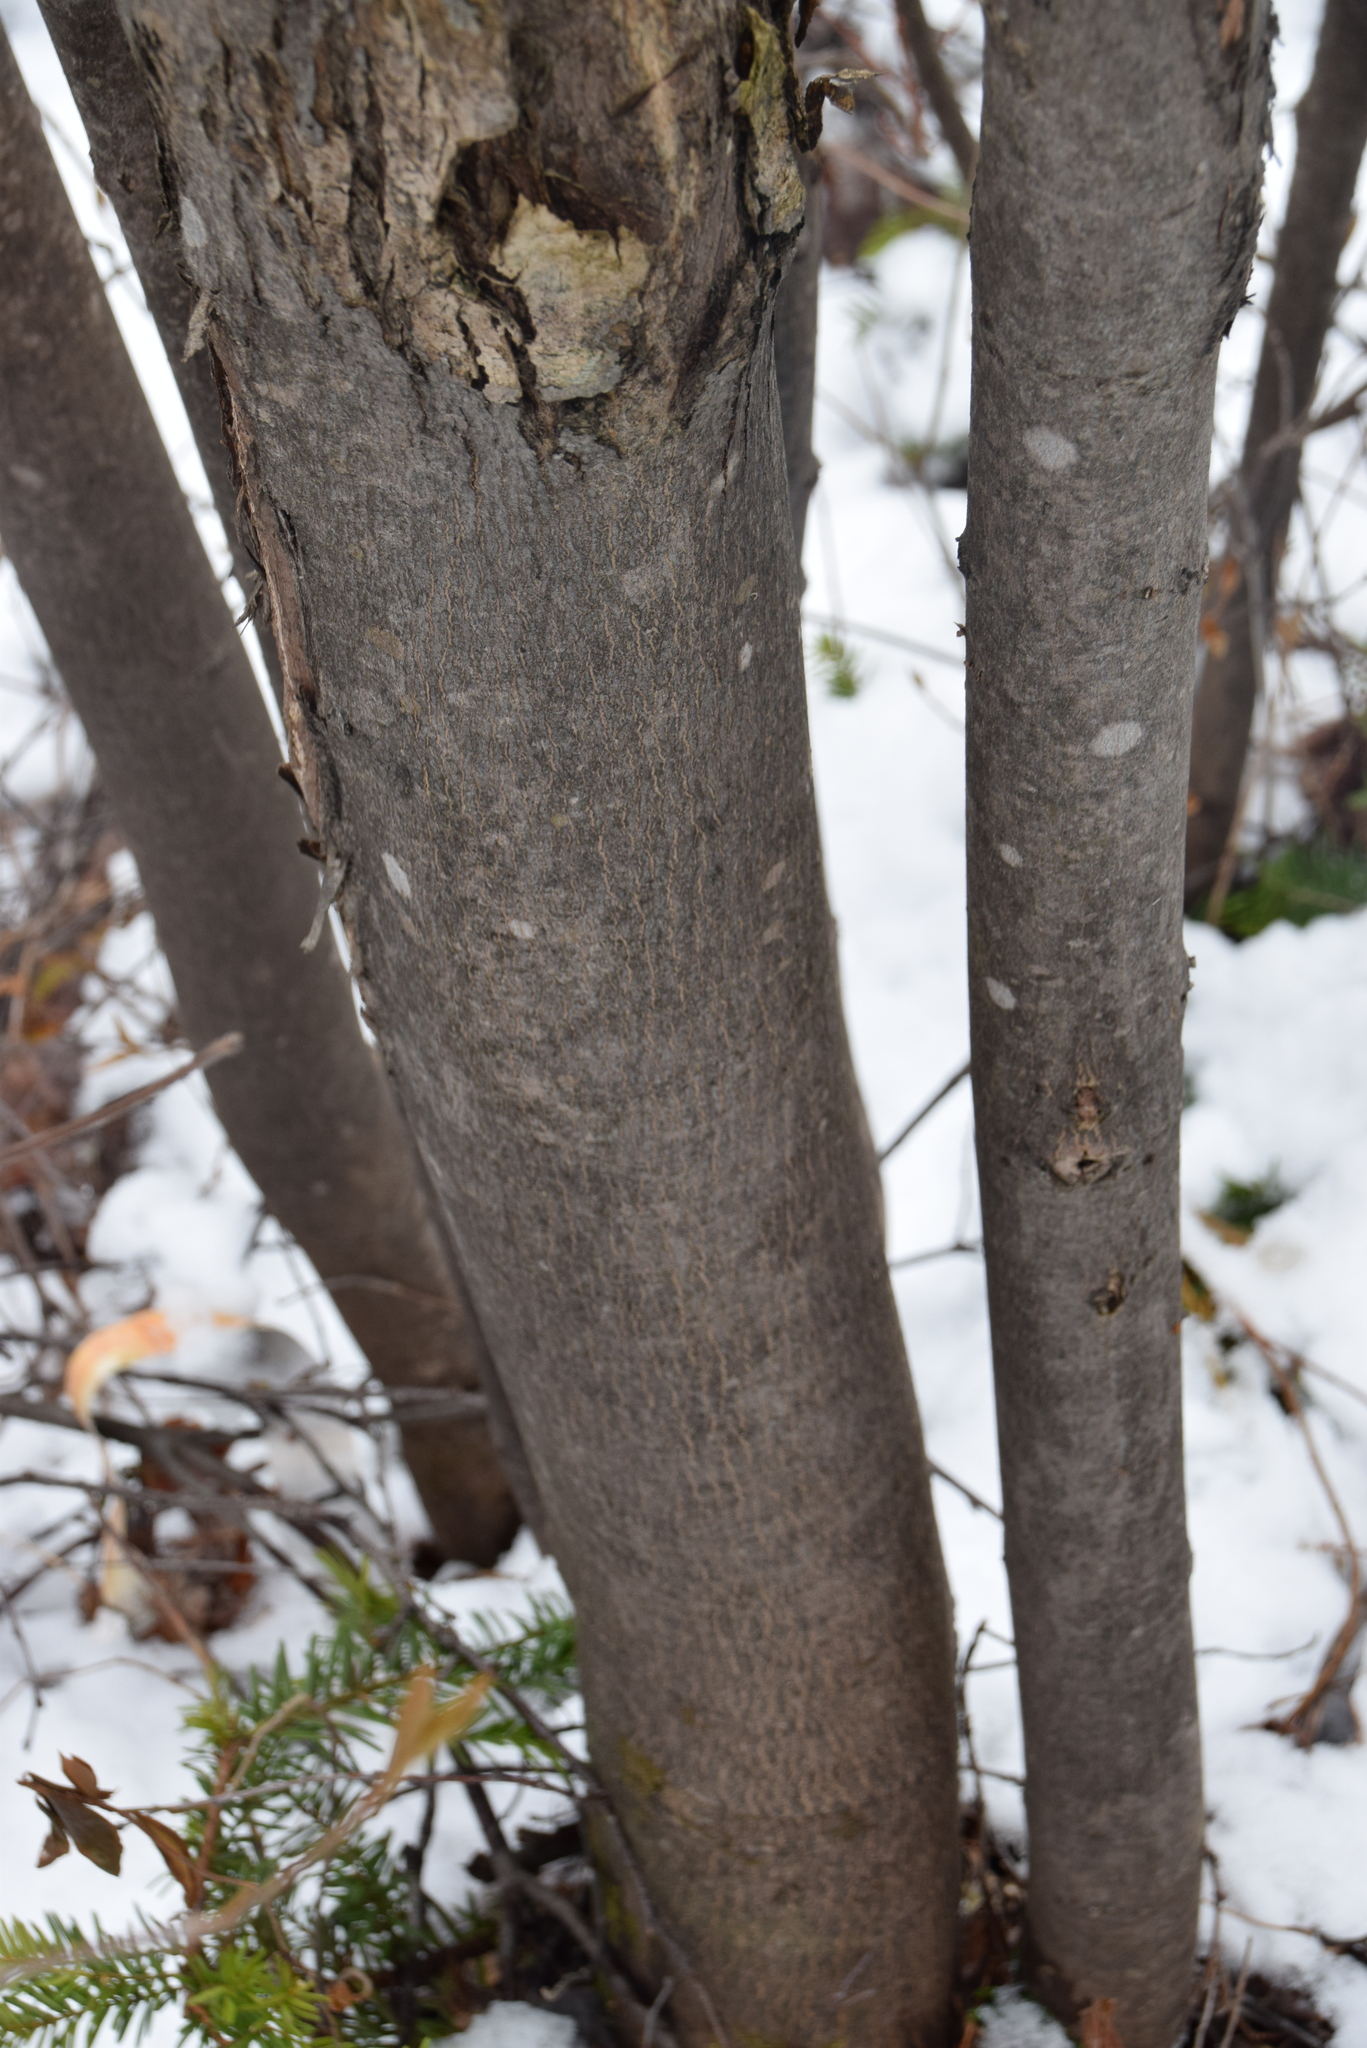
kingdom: Plantae
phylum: Tracheophyta
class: Magnoliopsida
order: Sapindales
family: Sapindaceae
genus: Acer
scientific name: Acer rubrum
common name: Red maple
